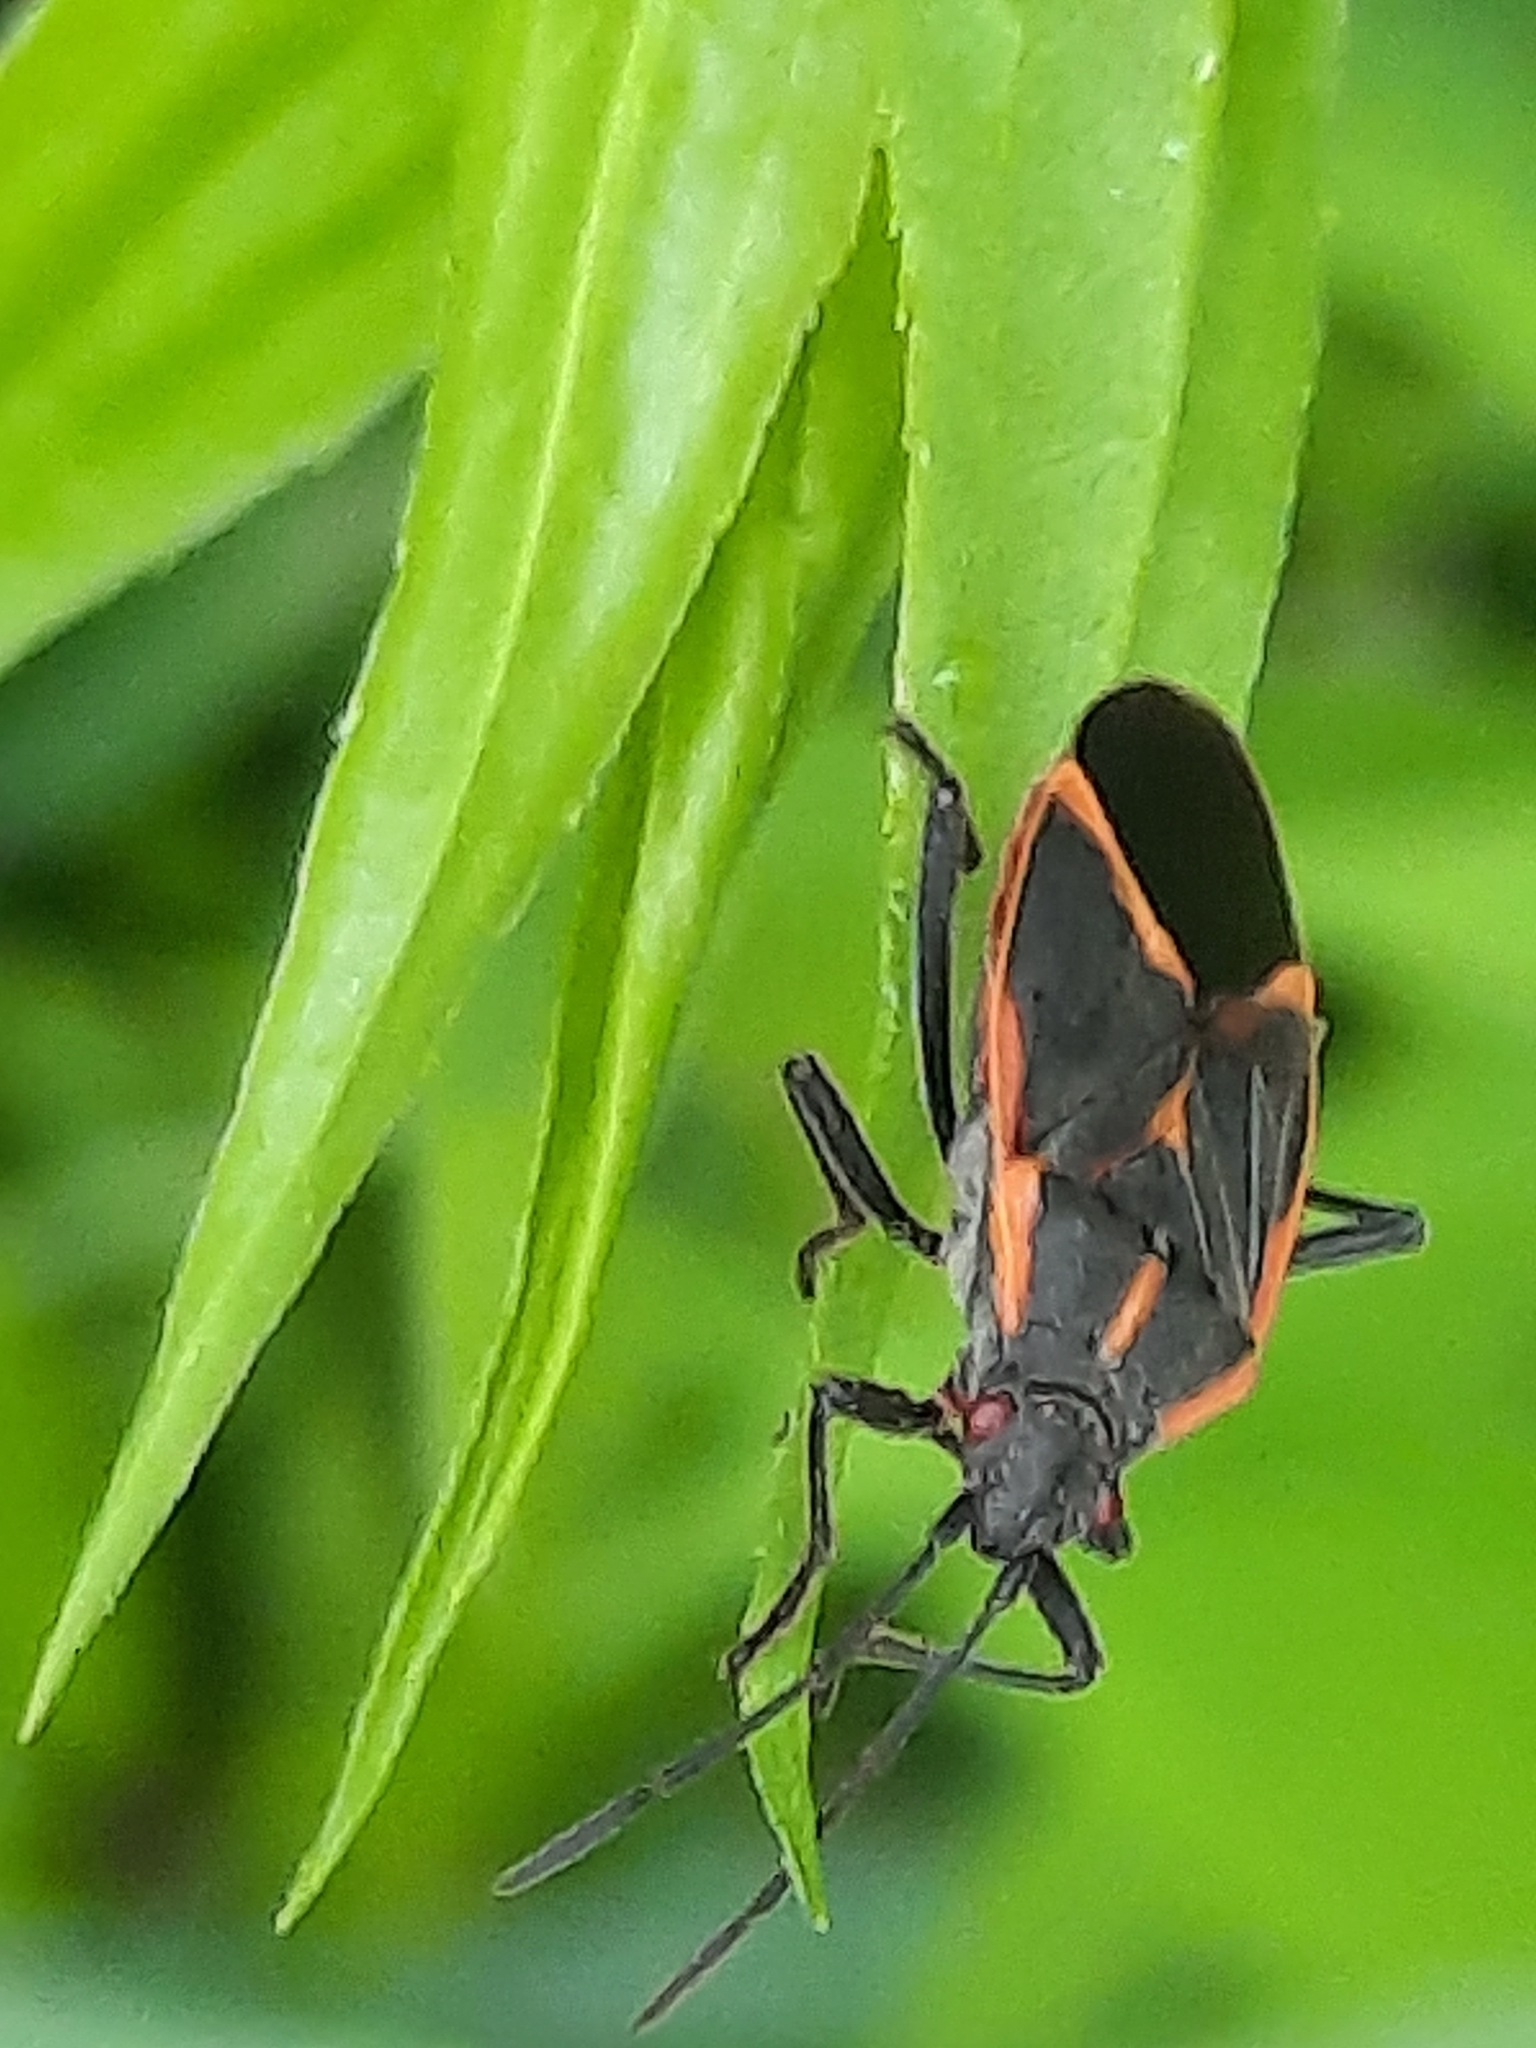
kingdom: Animalia
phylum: Arthropoda
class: Insecta
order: Hemiptera
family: Rhopalidae
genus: Boisea
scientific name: Boisea trivittata
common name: Boxelder bug
